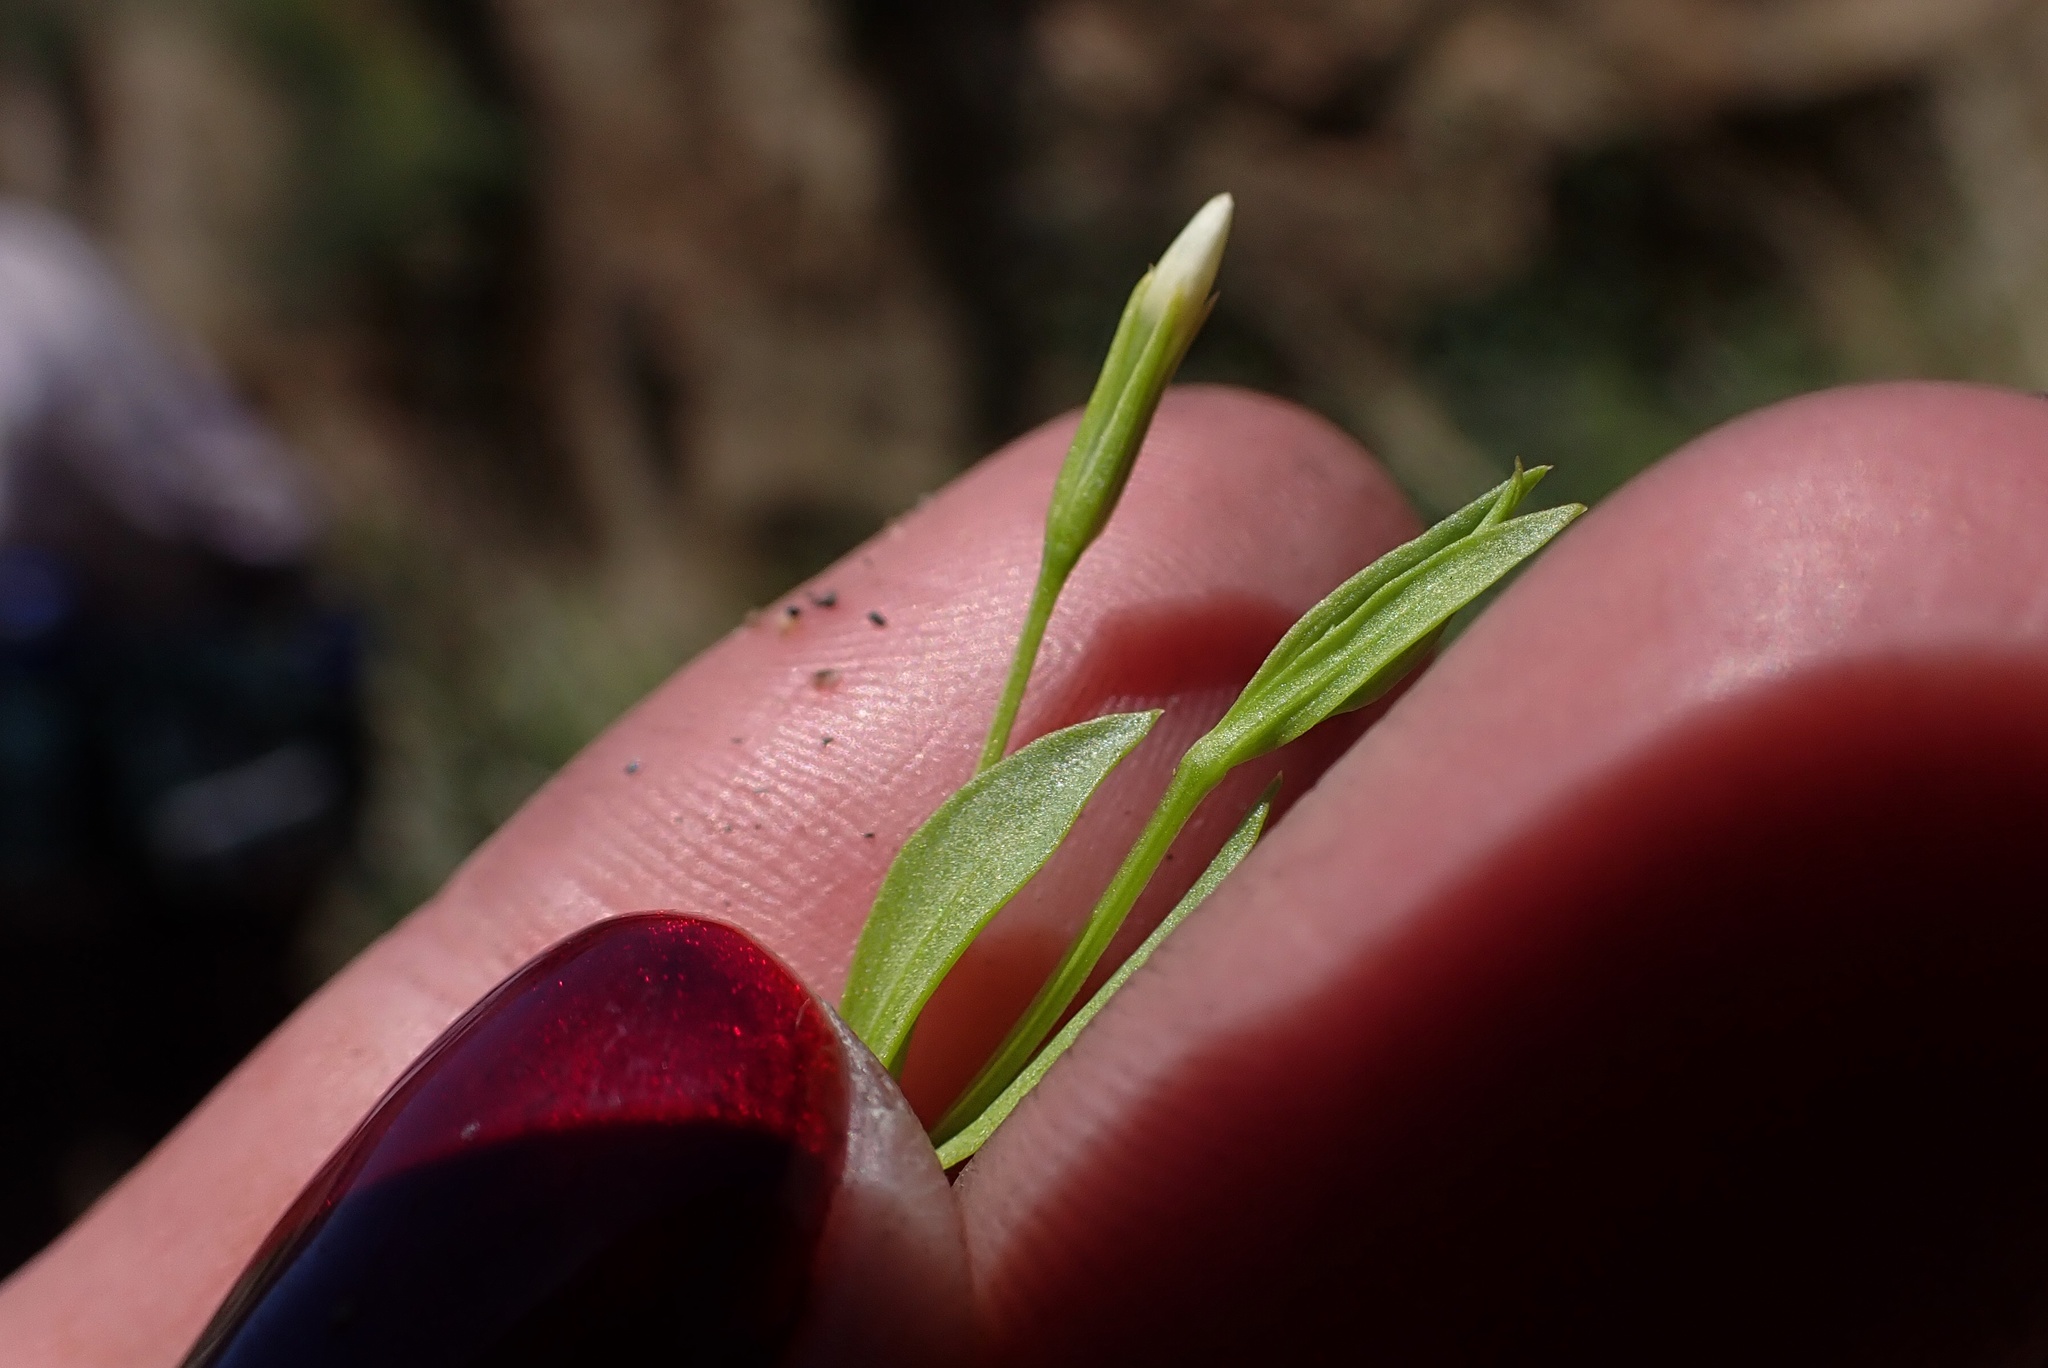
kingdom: Plantae
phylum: Tracheophyta
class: Magnoliopsida
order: Gentianales
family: Gentianaceae
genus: Zeltnera
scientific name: Zeltnera exaltata
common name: Great basin centaury
